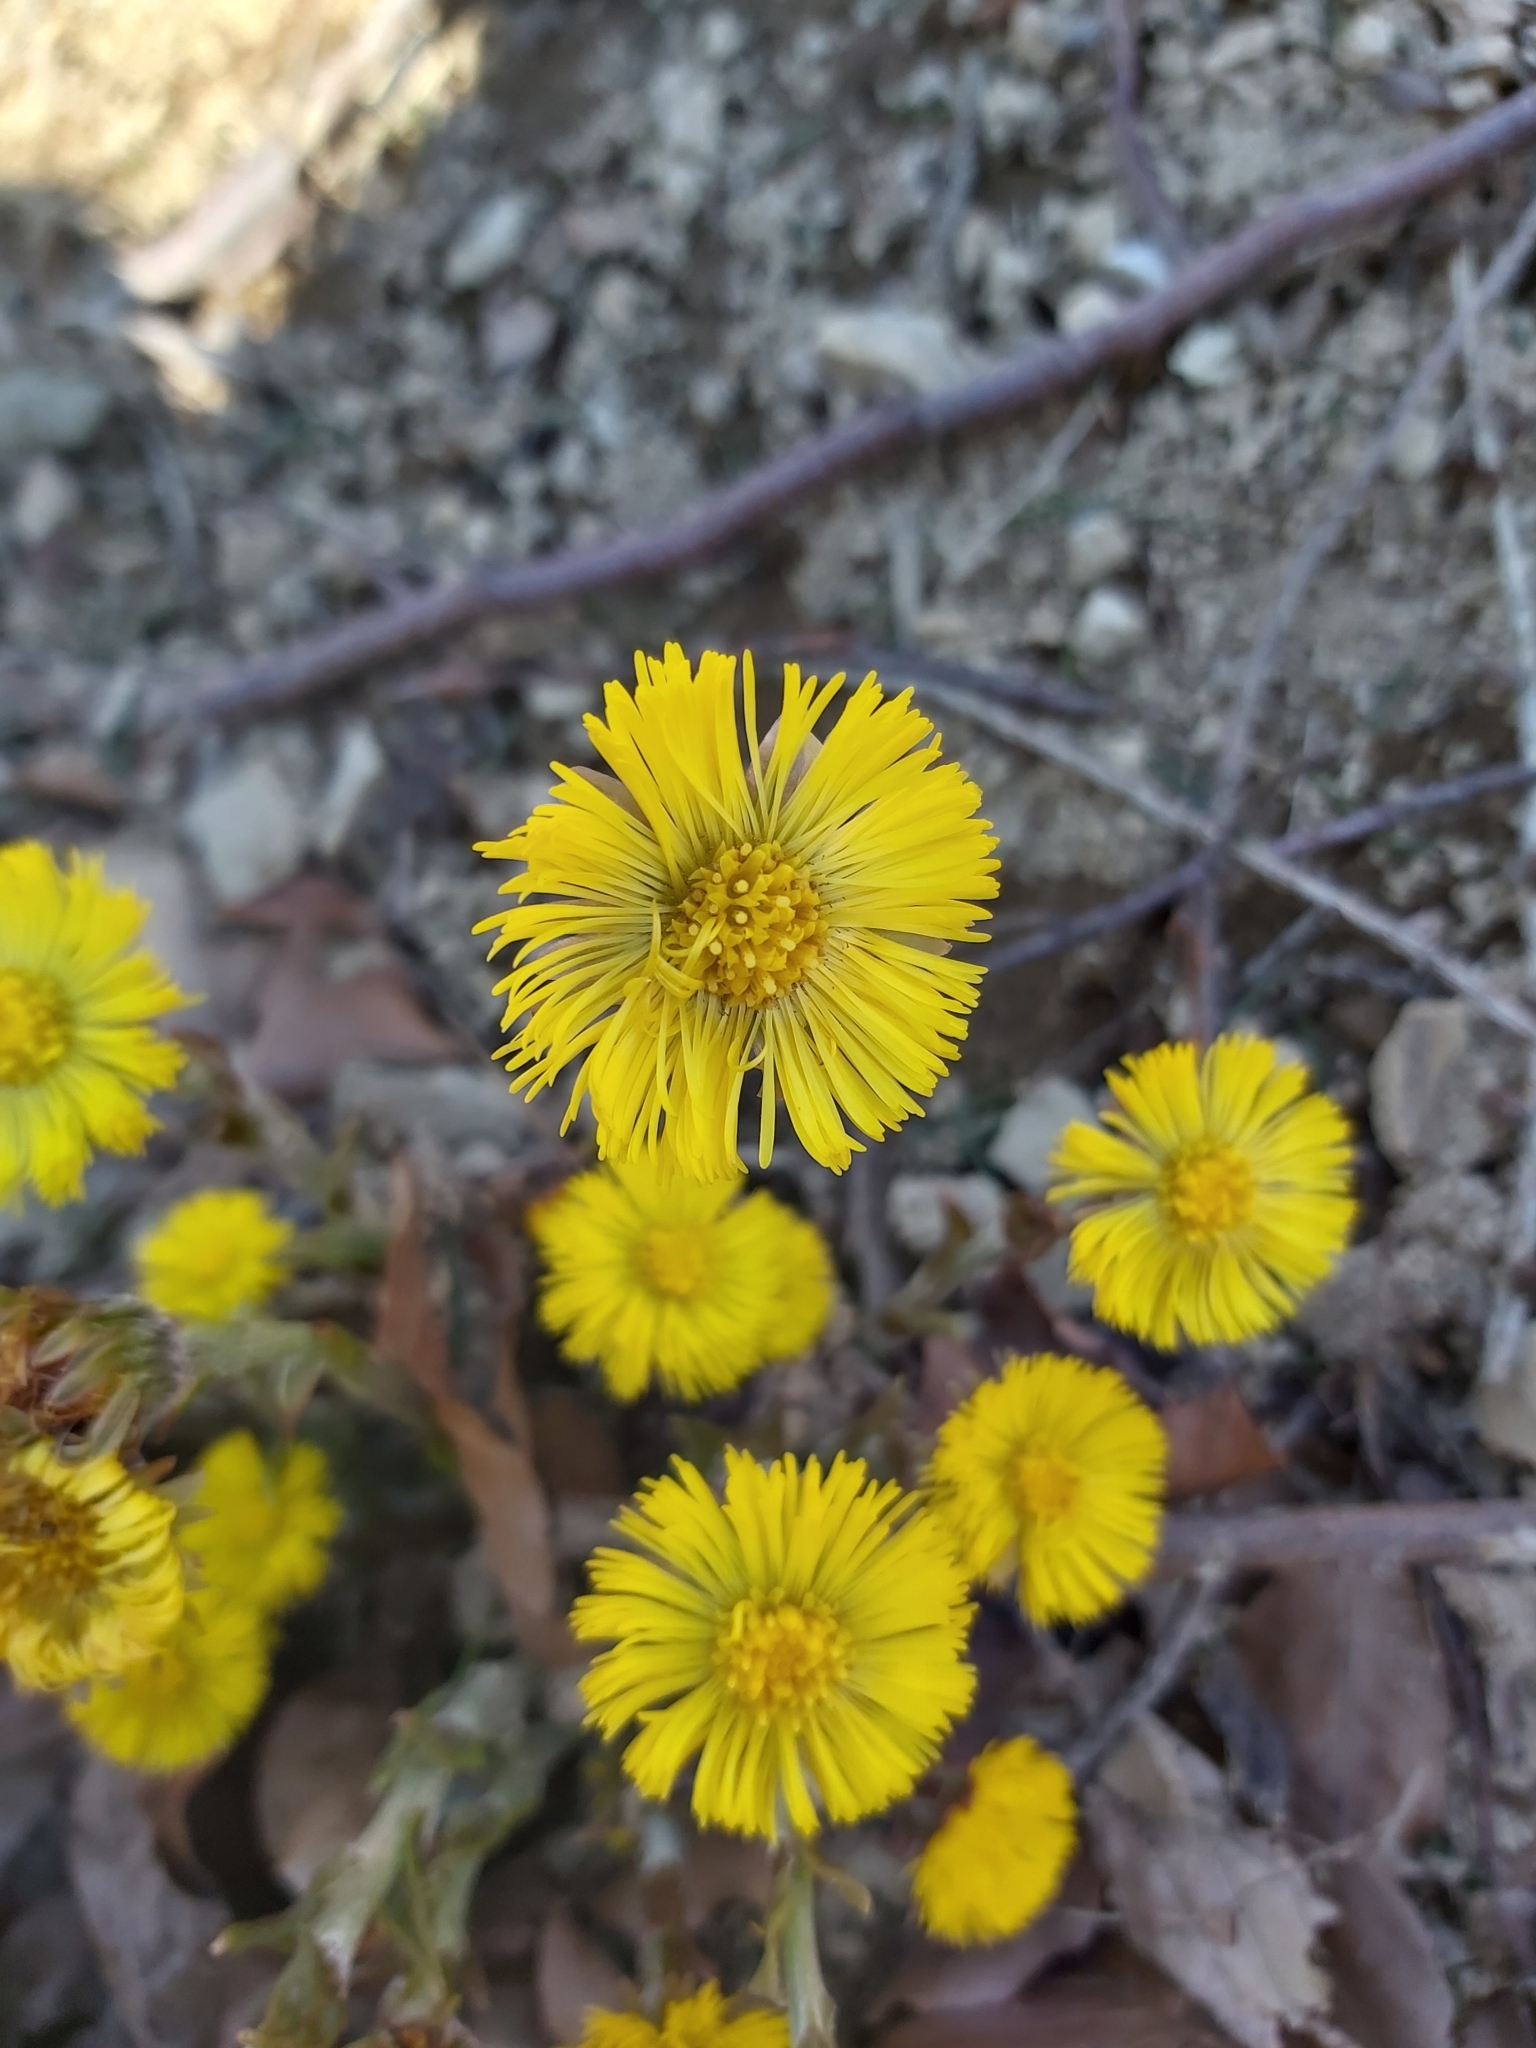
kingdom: Plantae
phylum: Tracheophyta
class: Magnoliopsida
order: Asterales
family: Asteraceae
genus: Tussilago
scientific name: Tussilago farfara
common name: Coltsfoot
